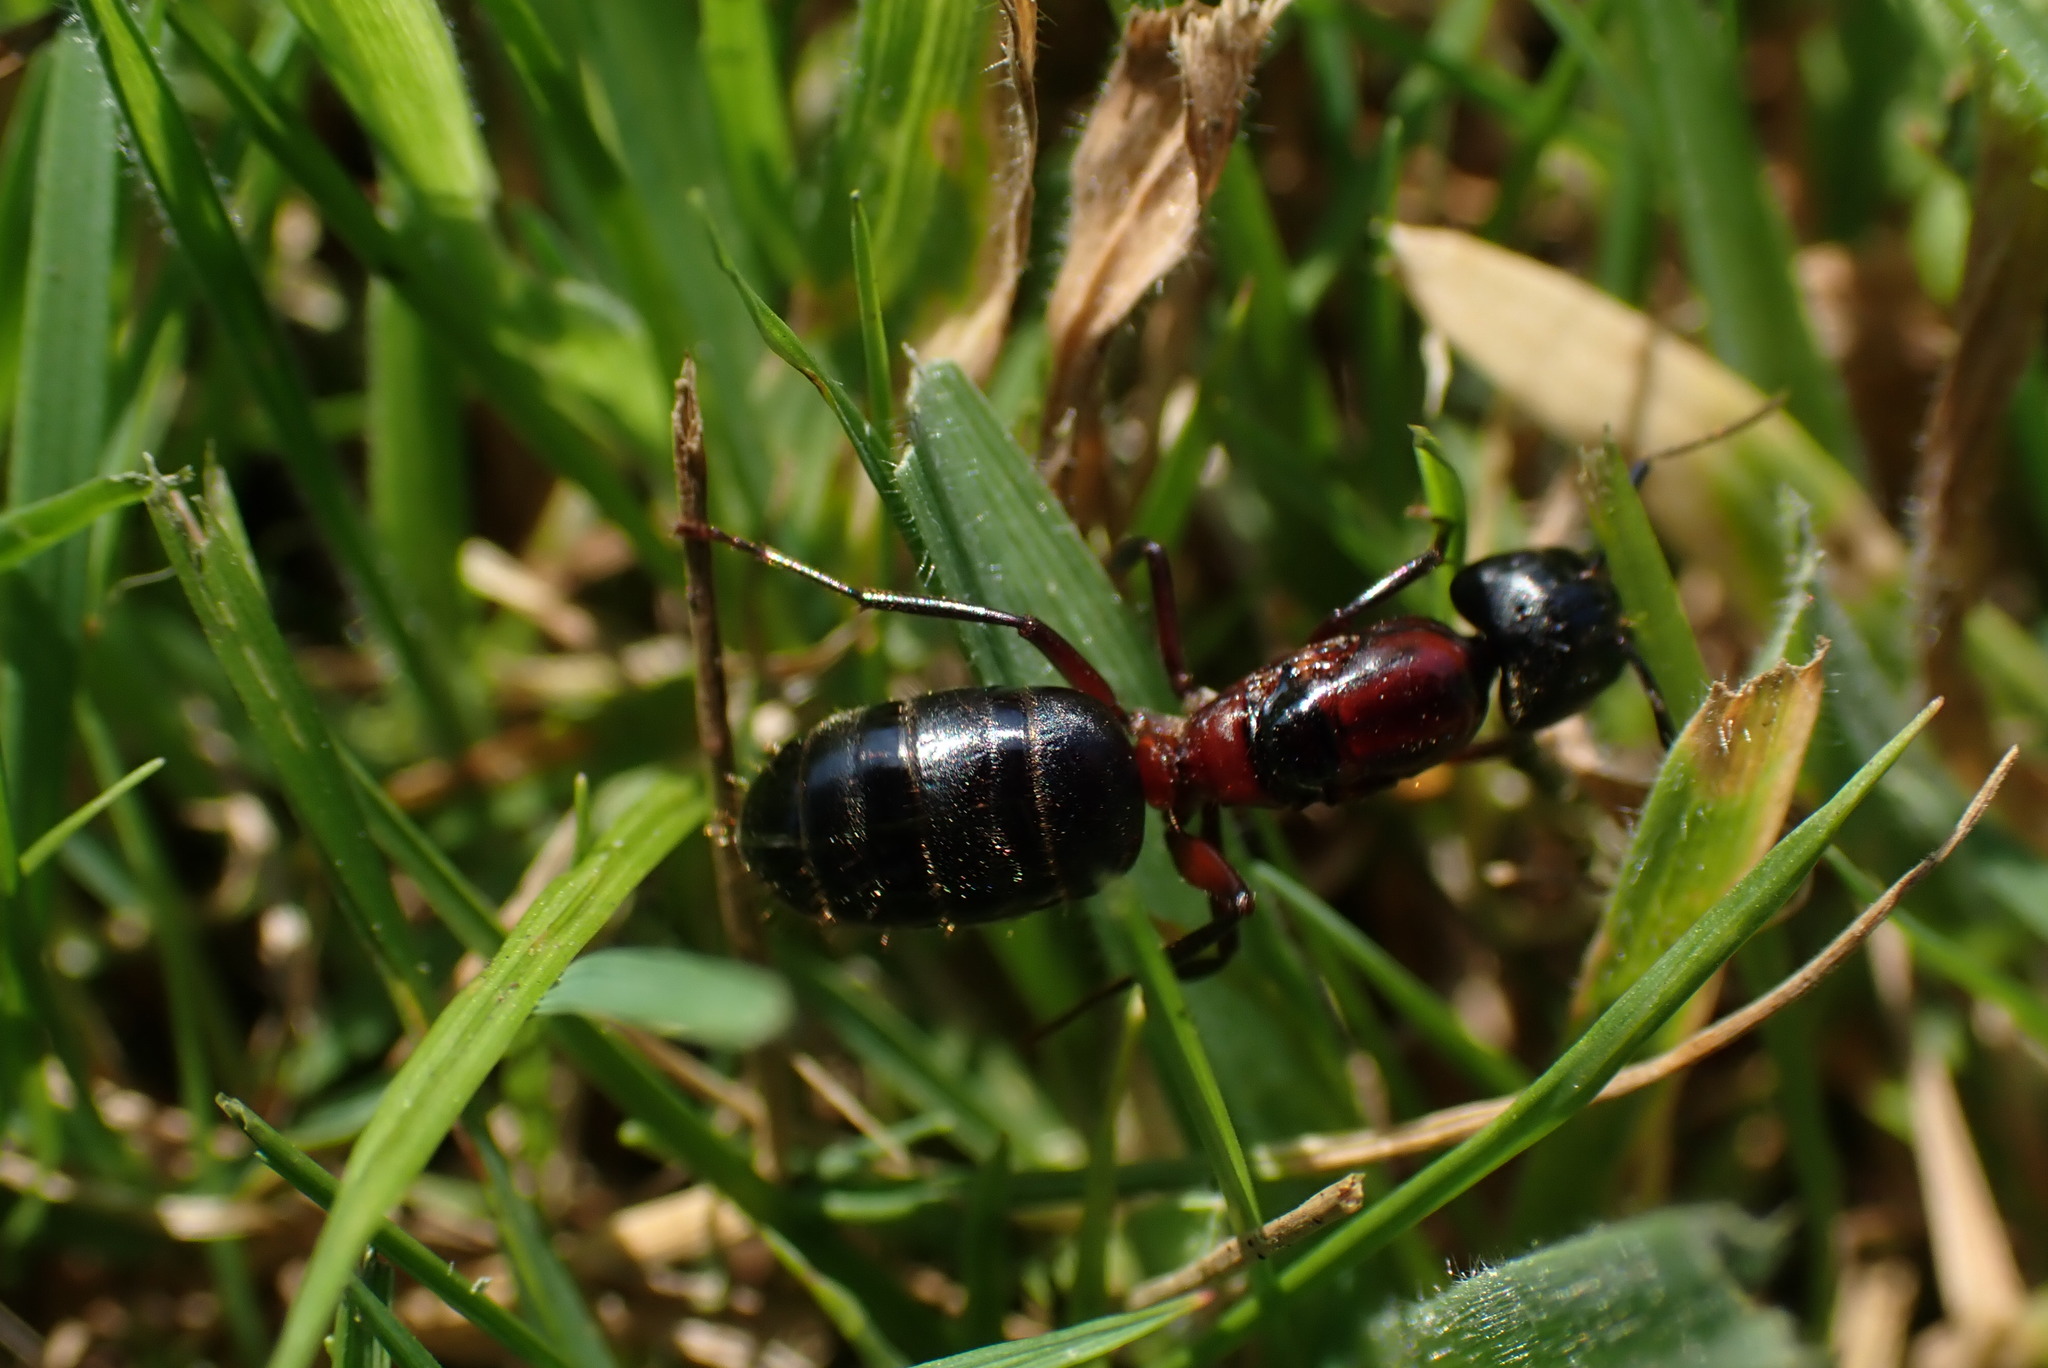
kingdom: Animalia
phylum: Arthropoda
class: Insecta
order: Hymenoptera
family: Formicidae
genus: Camponotus
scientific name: Camponotus novaeboracensis
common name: New york carpenter ant
